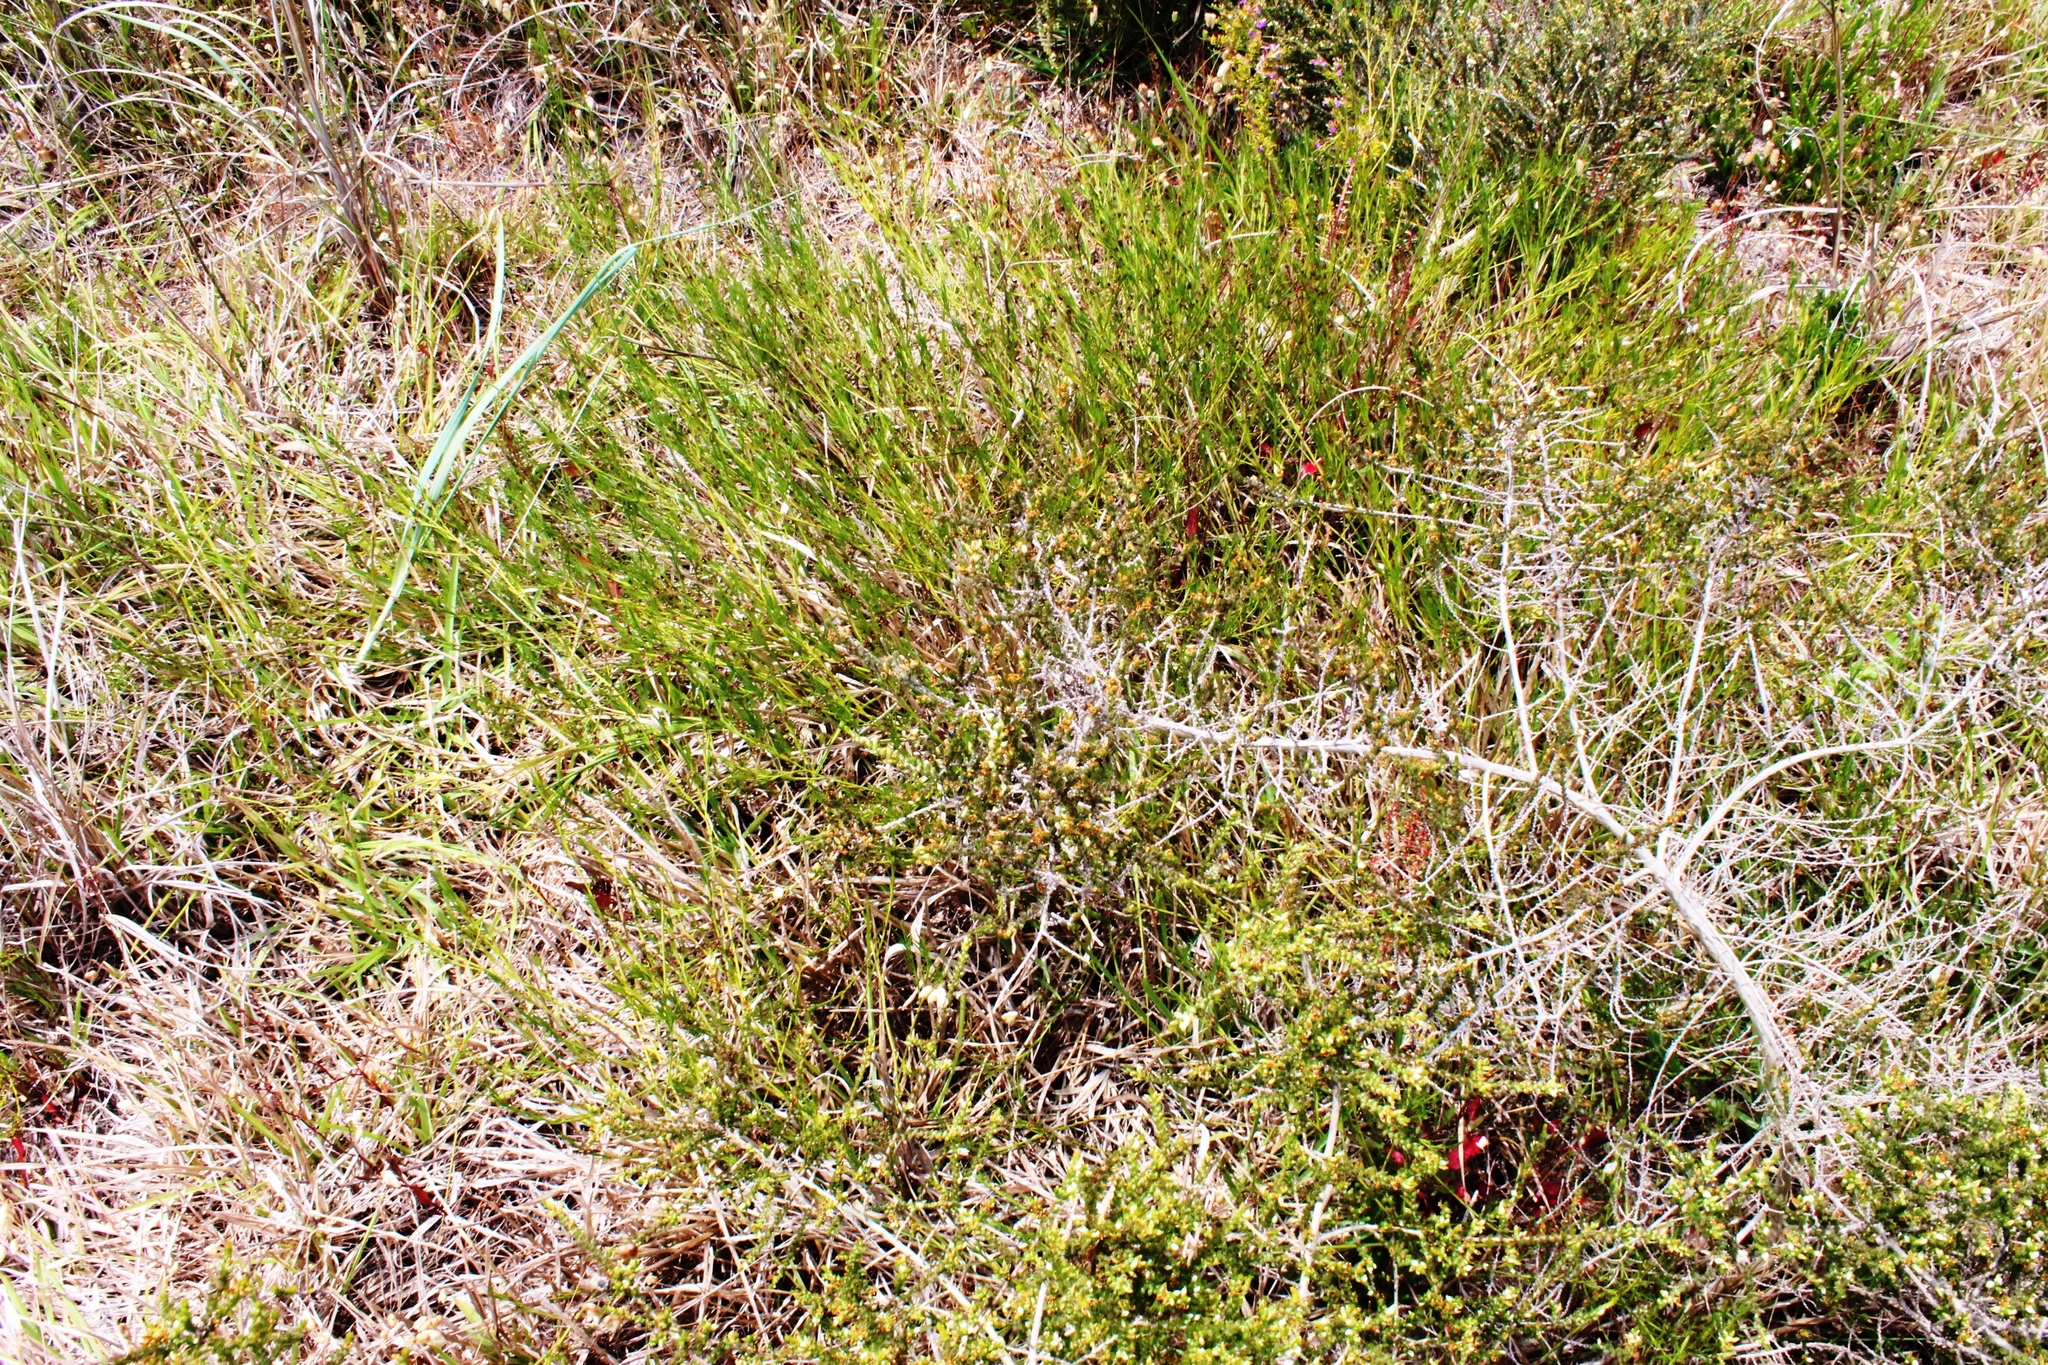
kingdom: Plantae
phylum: Tracheophyta
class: Magnoliopsida
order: Fabales
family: Fabaceae
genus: Psoralea
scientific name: Psoralea fascicularis
